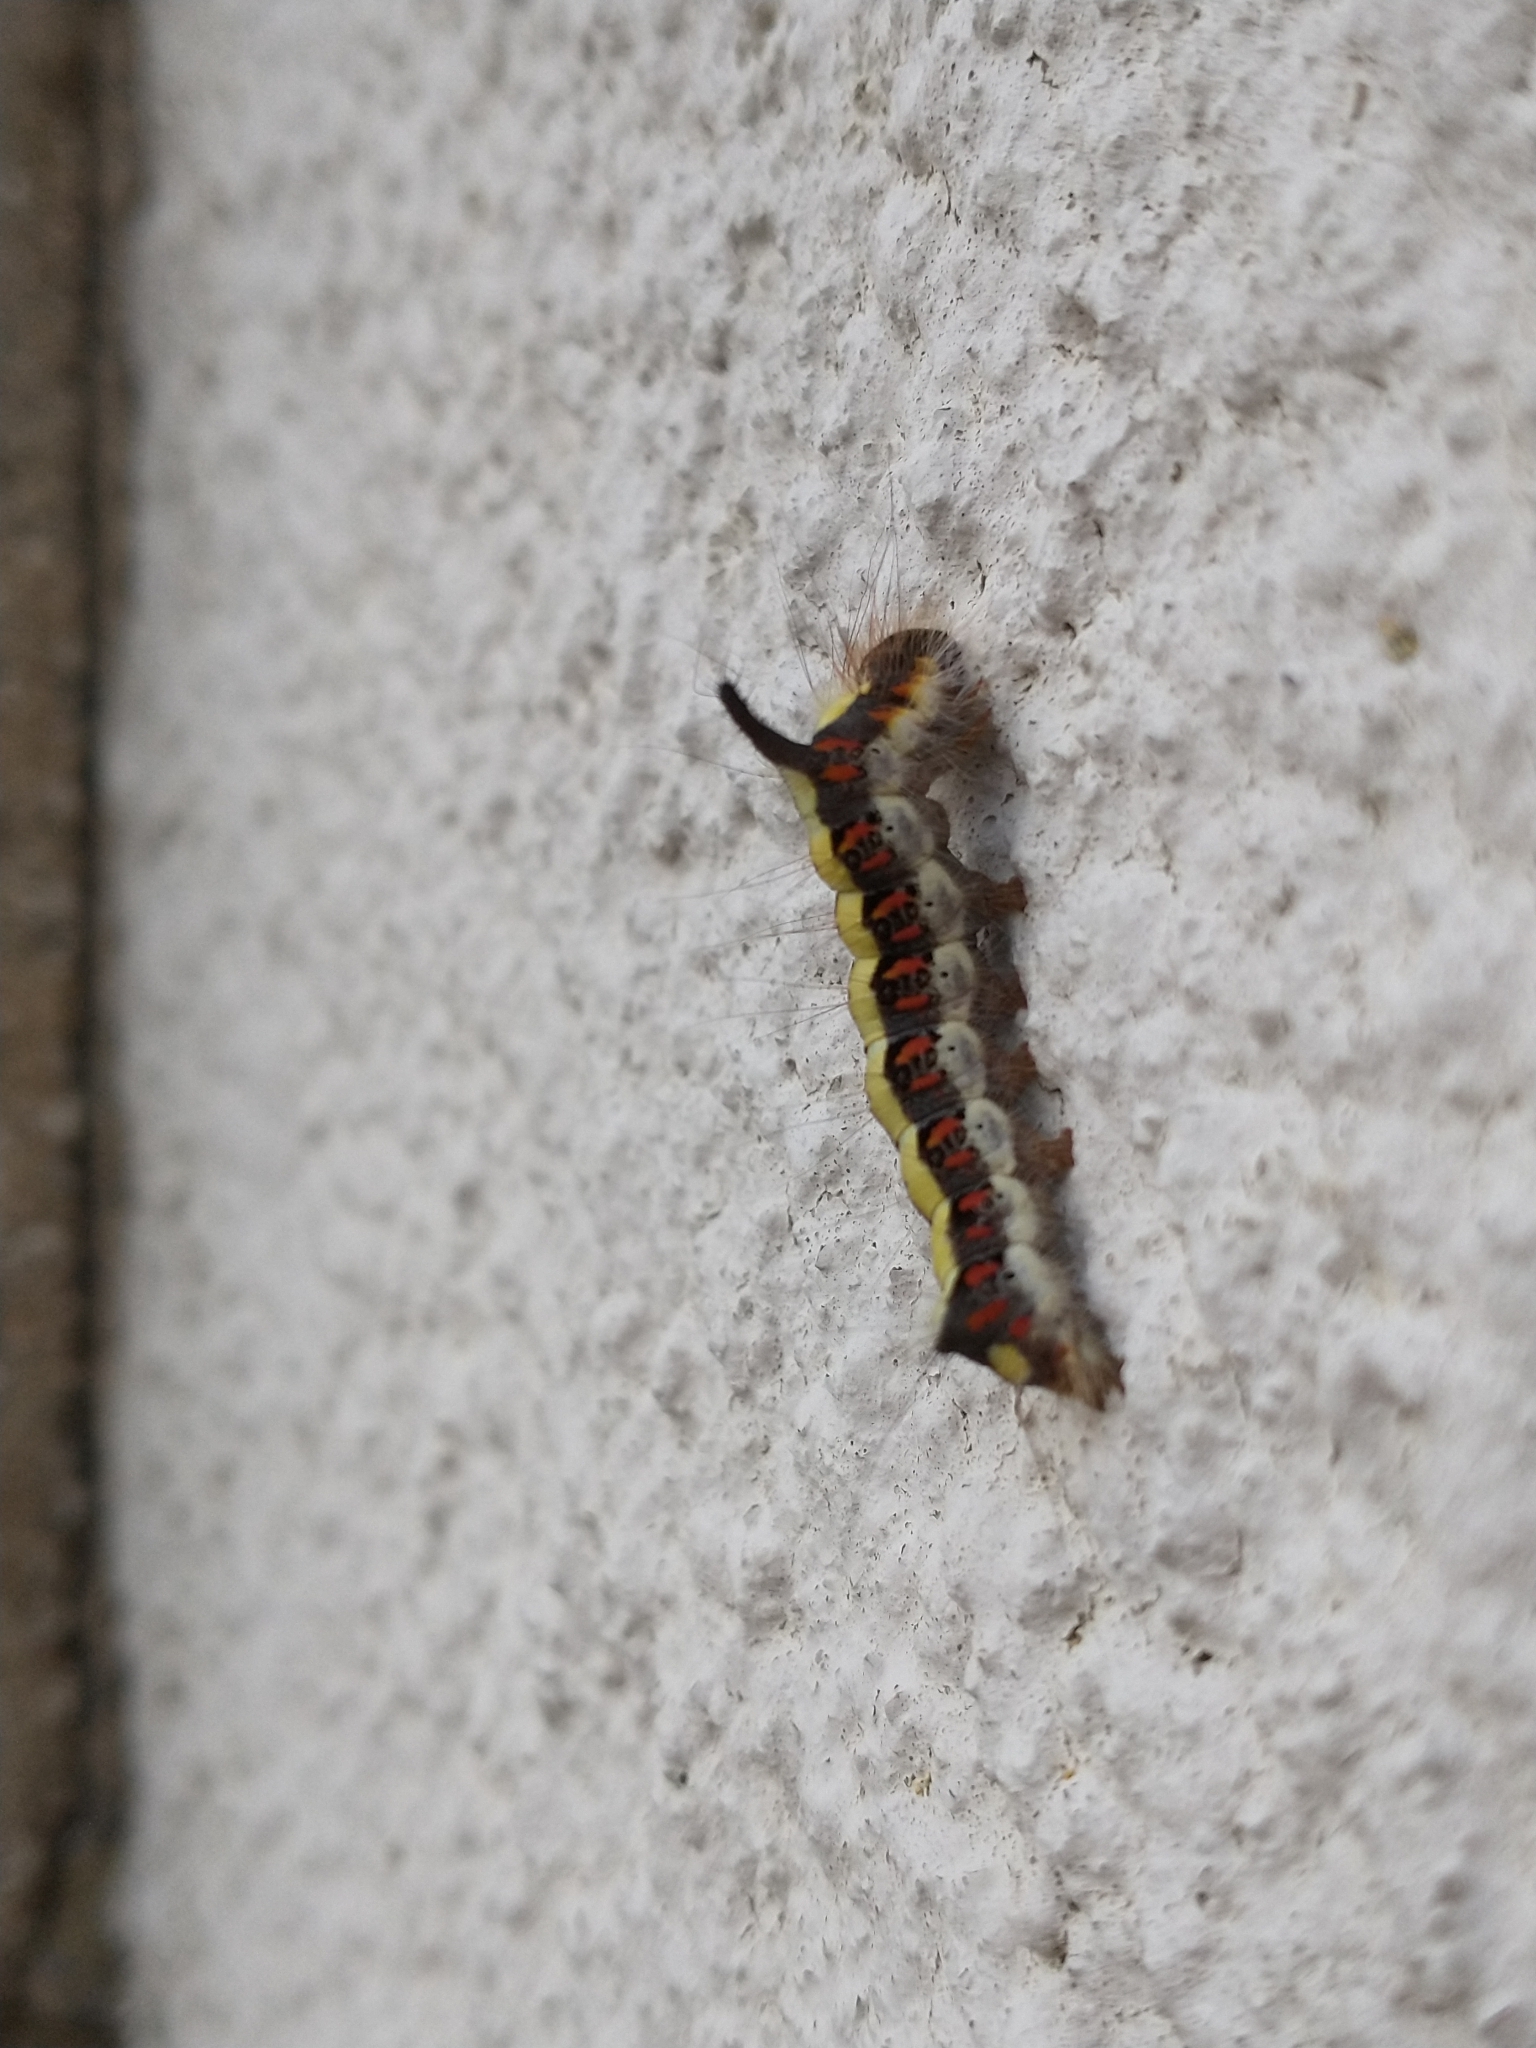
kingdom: Animalia
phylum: Arthropoda
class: Insecta
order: Lepidoptera
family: Noctuidae
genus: Acronicta
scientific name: Acronicta psi
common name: Grey dagger
